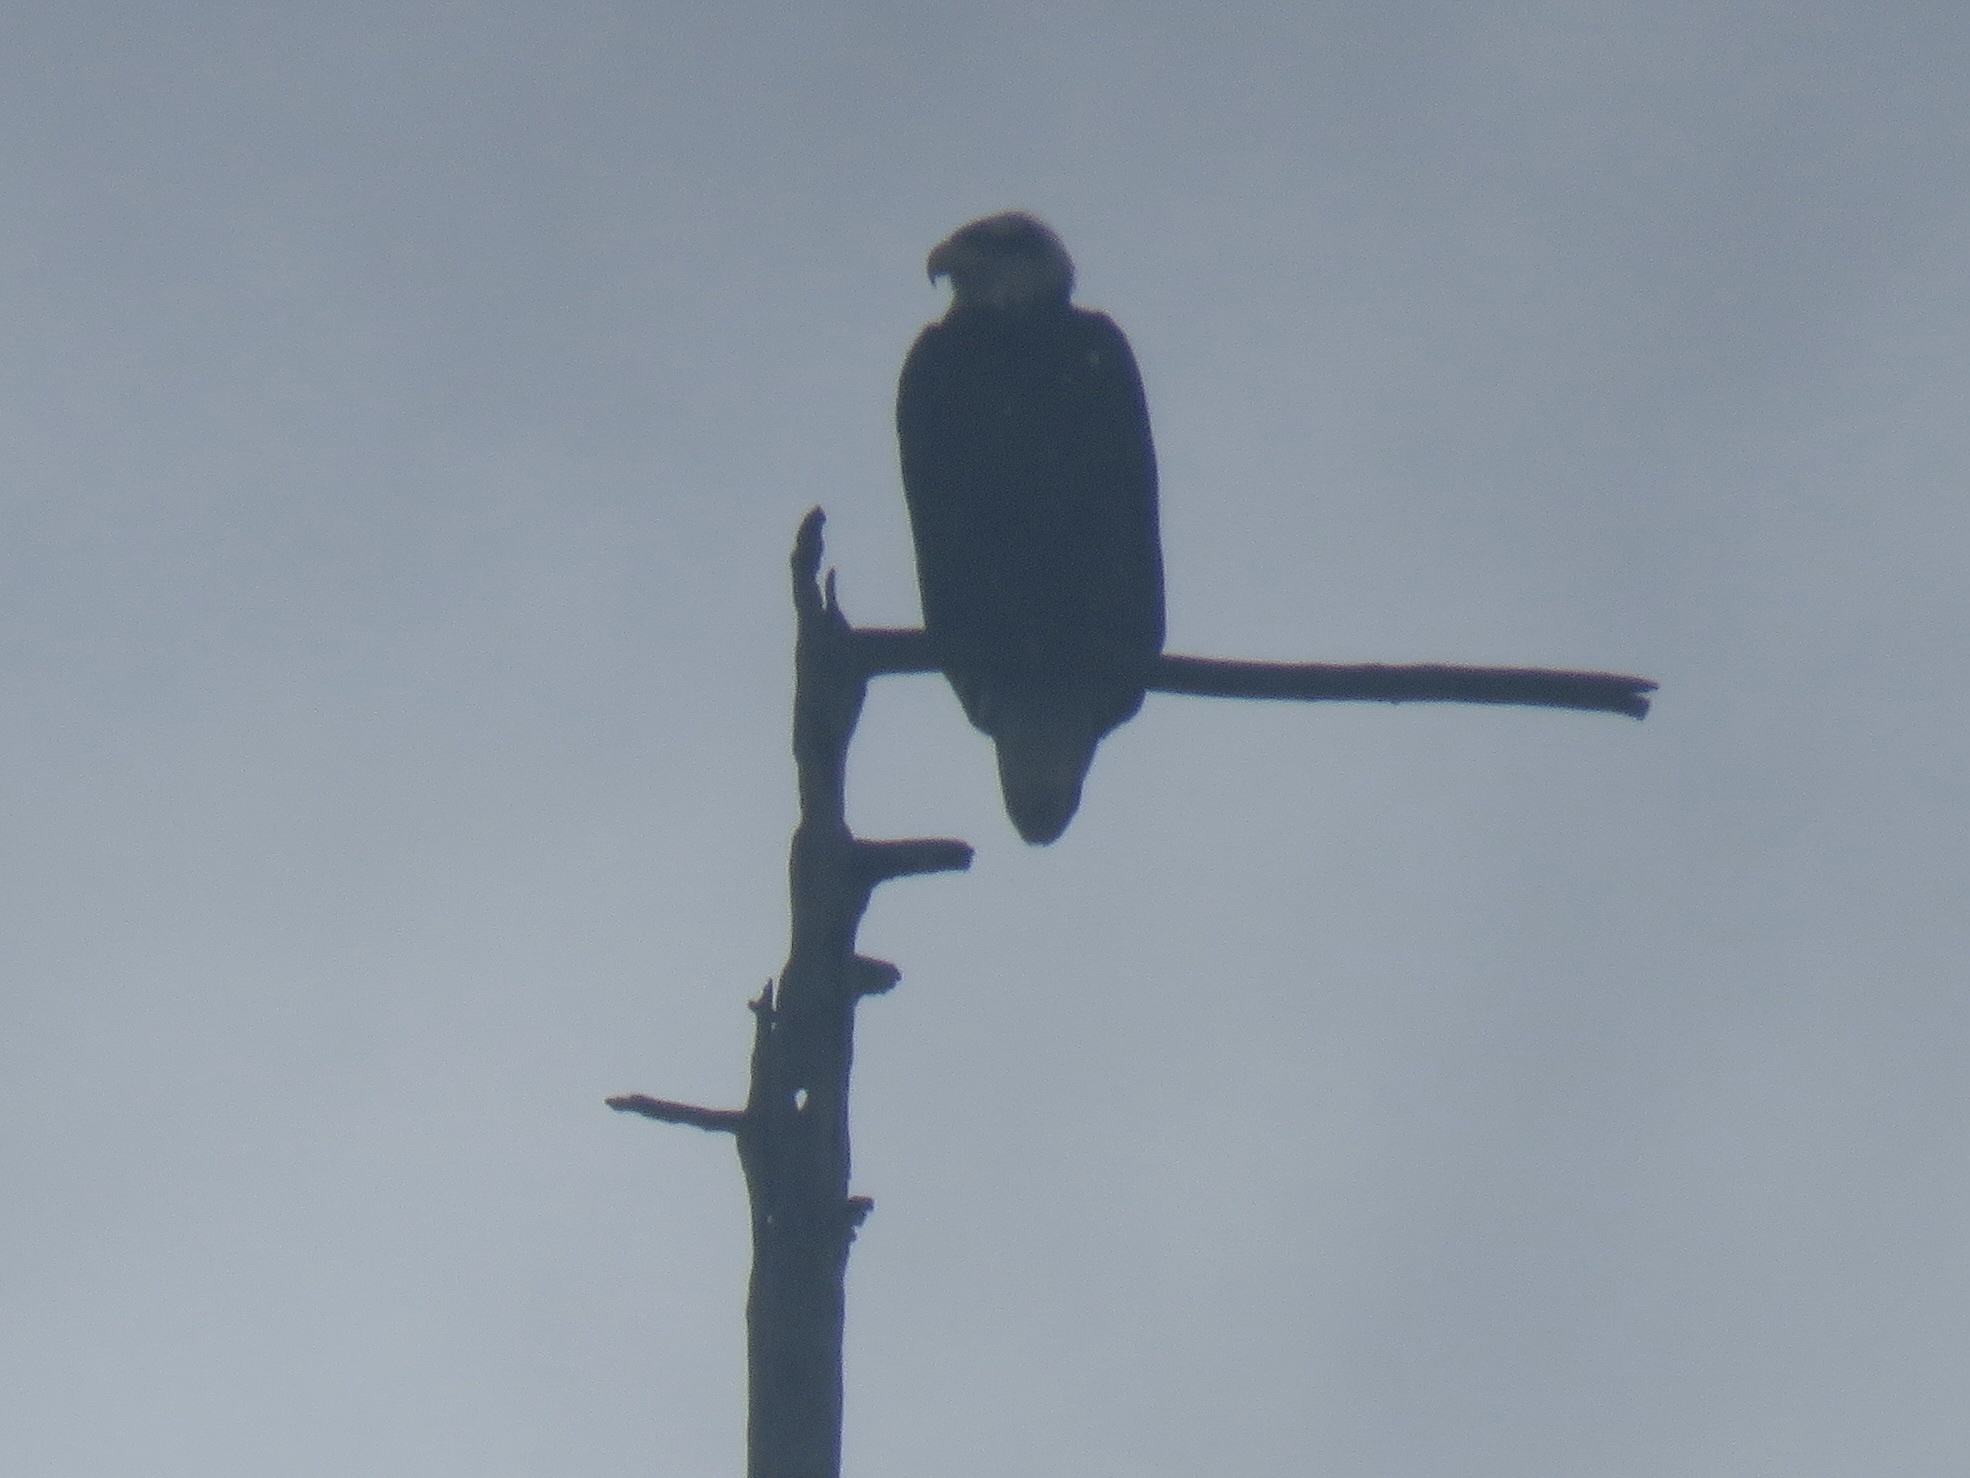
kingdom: Animalia
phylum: Chordata
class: Aves
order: Accipitriformes
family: Accipitridae
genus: Haliaeetus
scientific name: Haliaeetus leucocephalus
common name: Bald eagle
